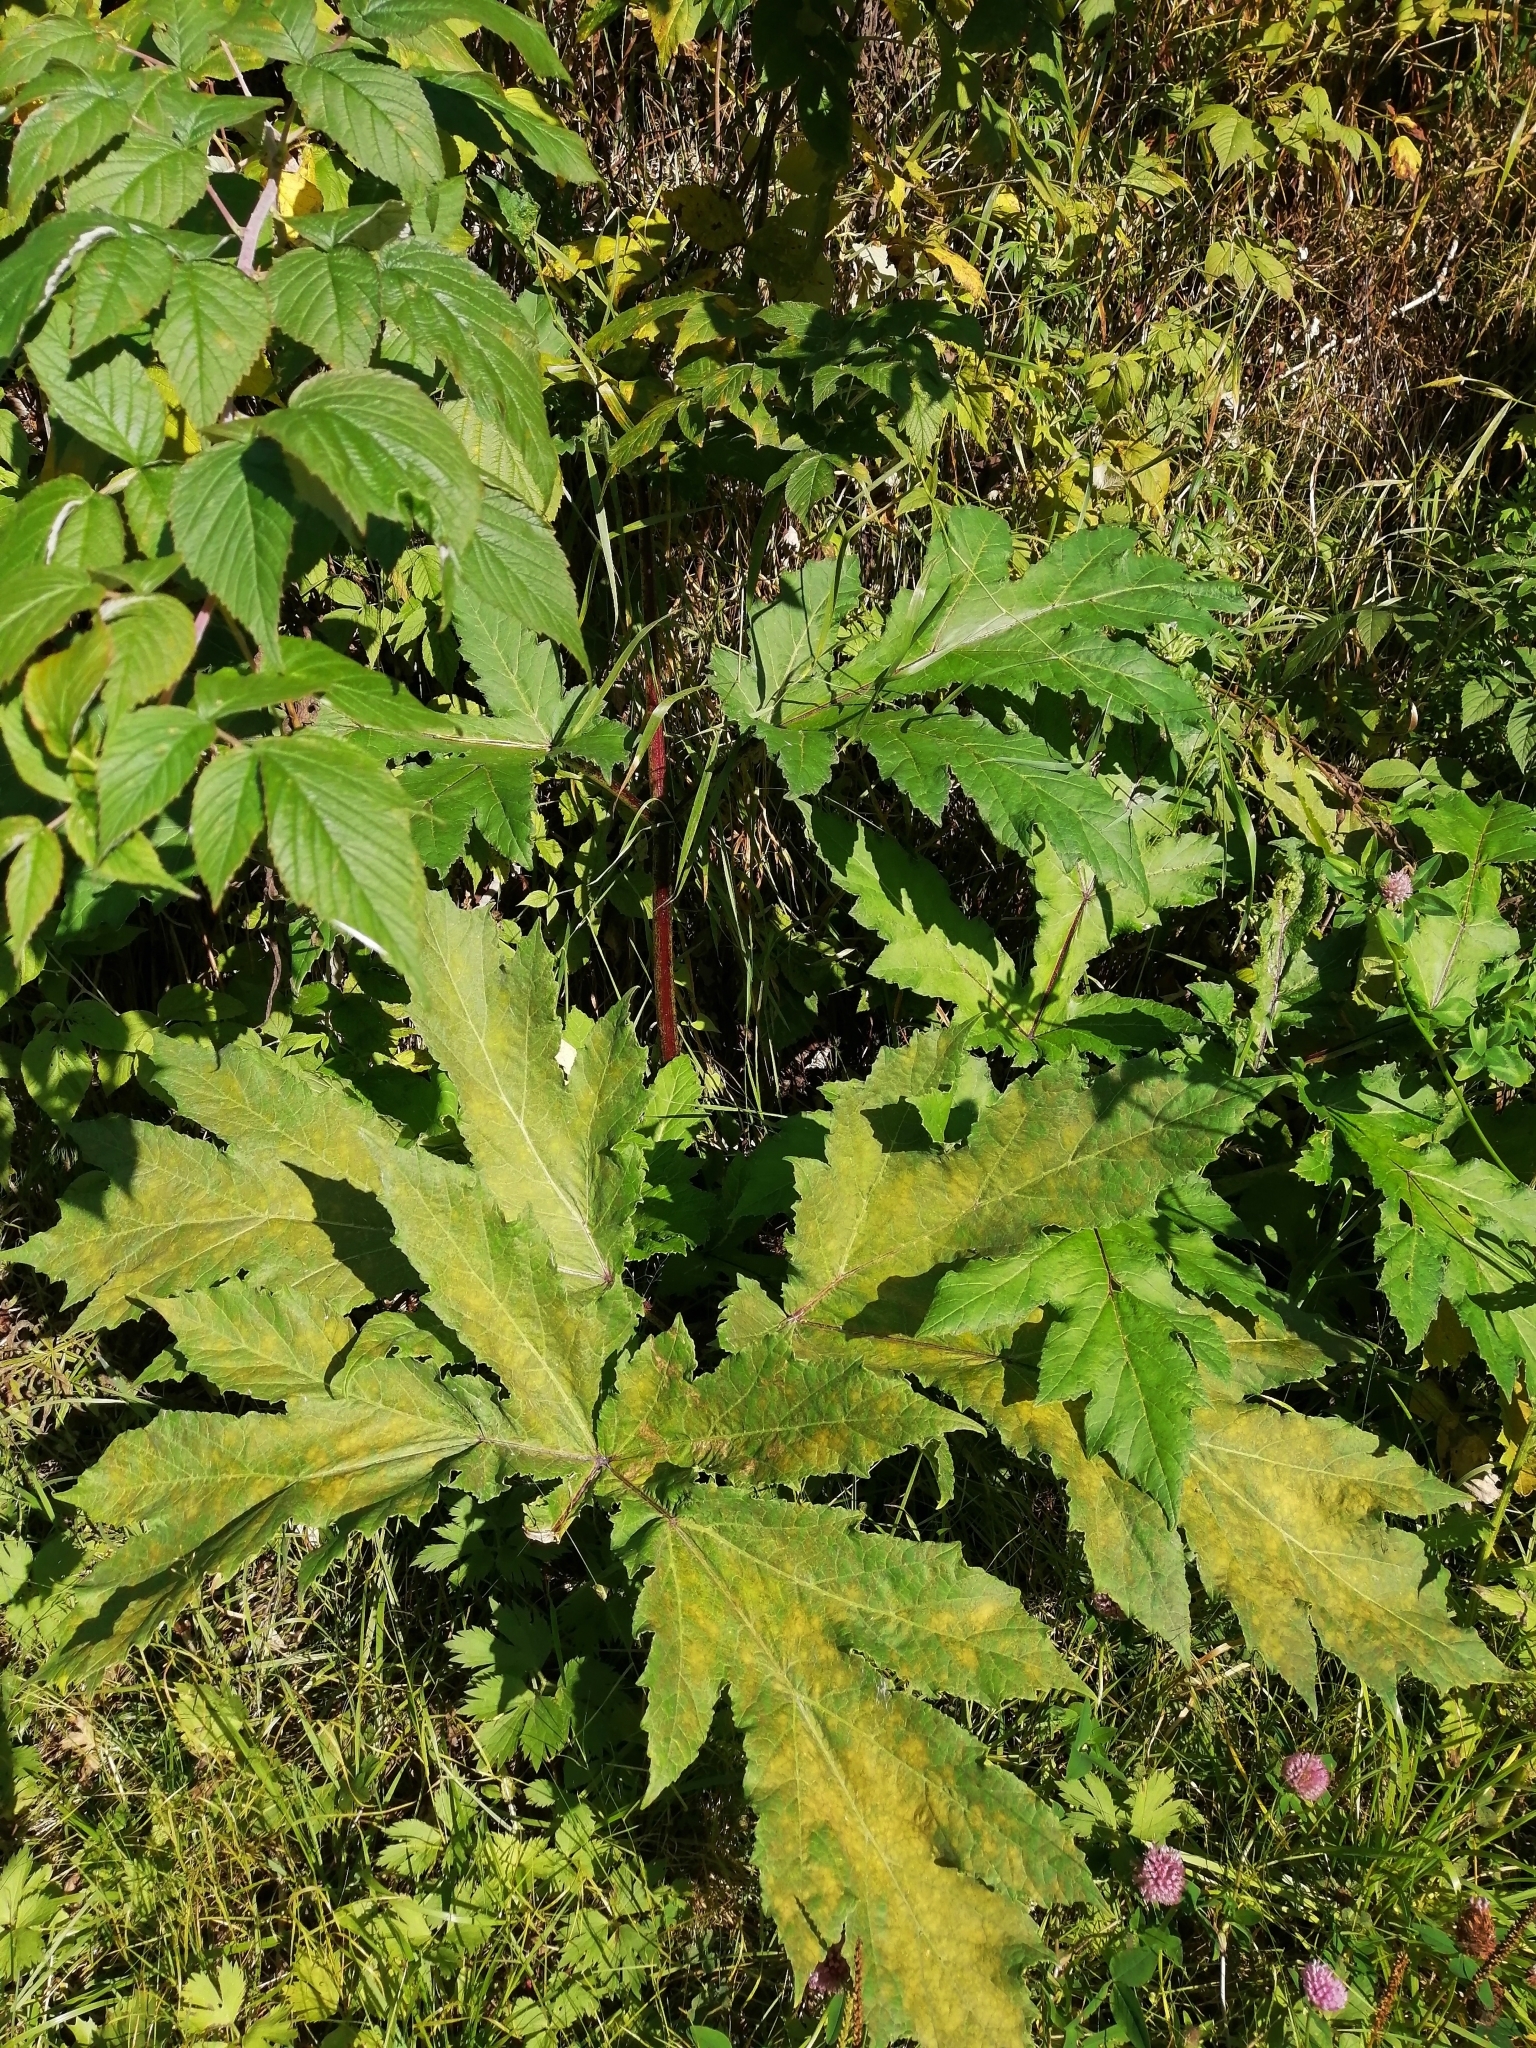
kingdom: Plantae
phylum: Tracheophyta
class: Magnoliopsida
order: Apiales
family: Apiaceae
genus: Heracleum
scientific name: Heracleum sosnowskyi
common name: Sosnowsky's hogweed
